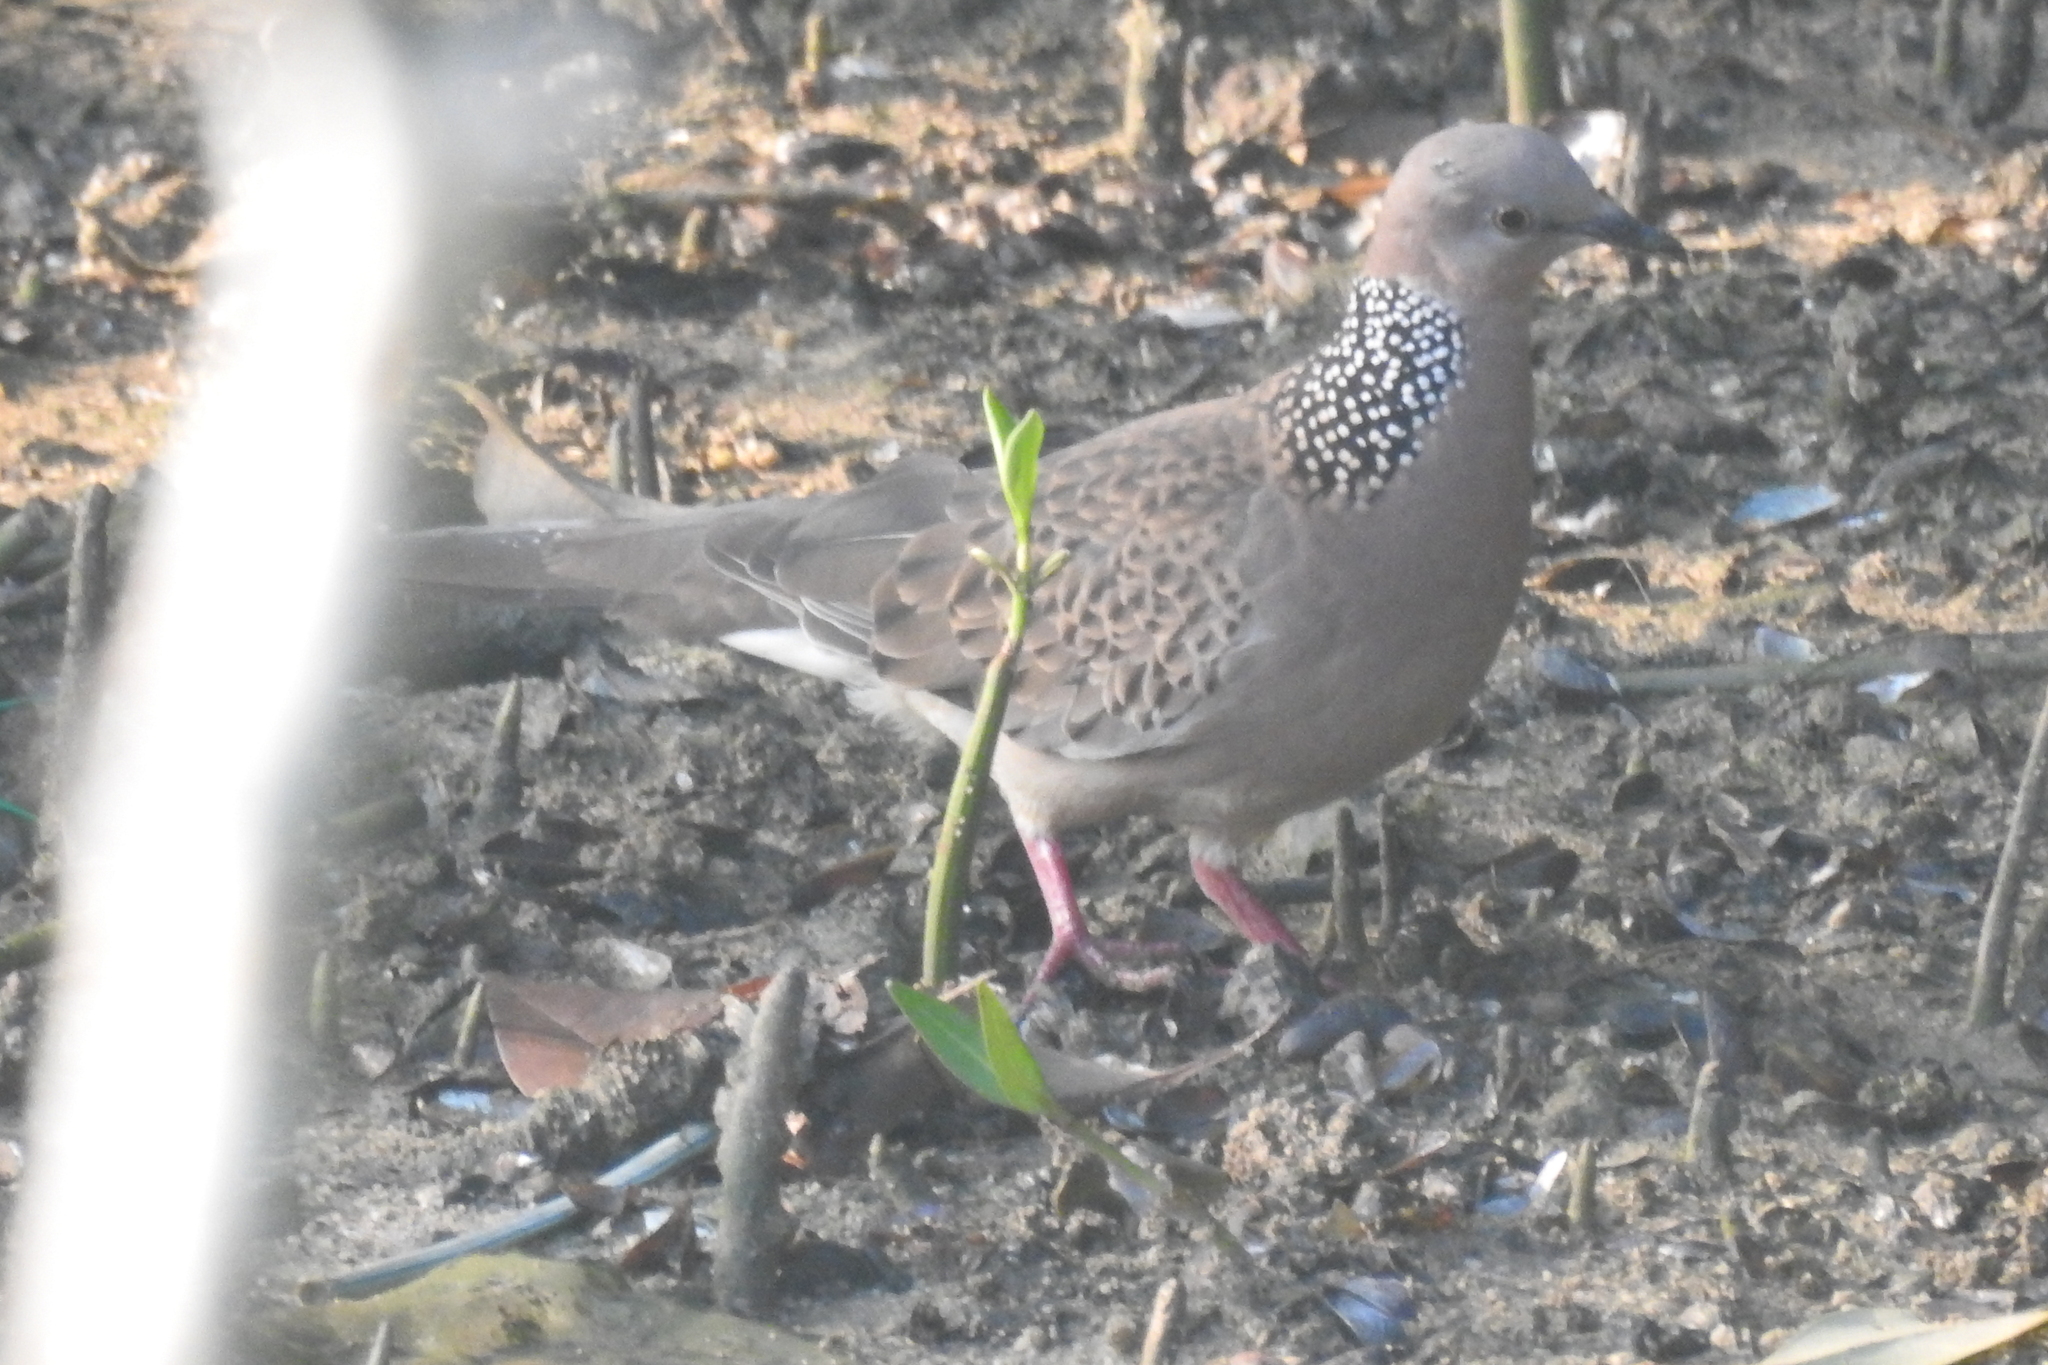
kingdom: Animalia
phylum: Chordata
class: Aves
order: Columbiformes
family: Columbidae
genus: Spilopelia
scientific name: Spilopelia chinensis
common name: Spotted dove
